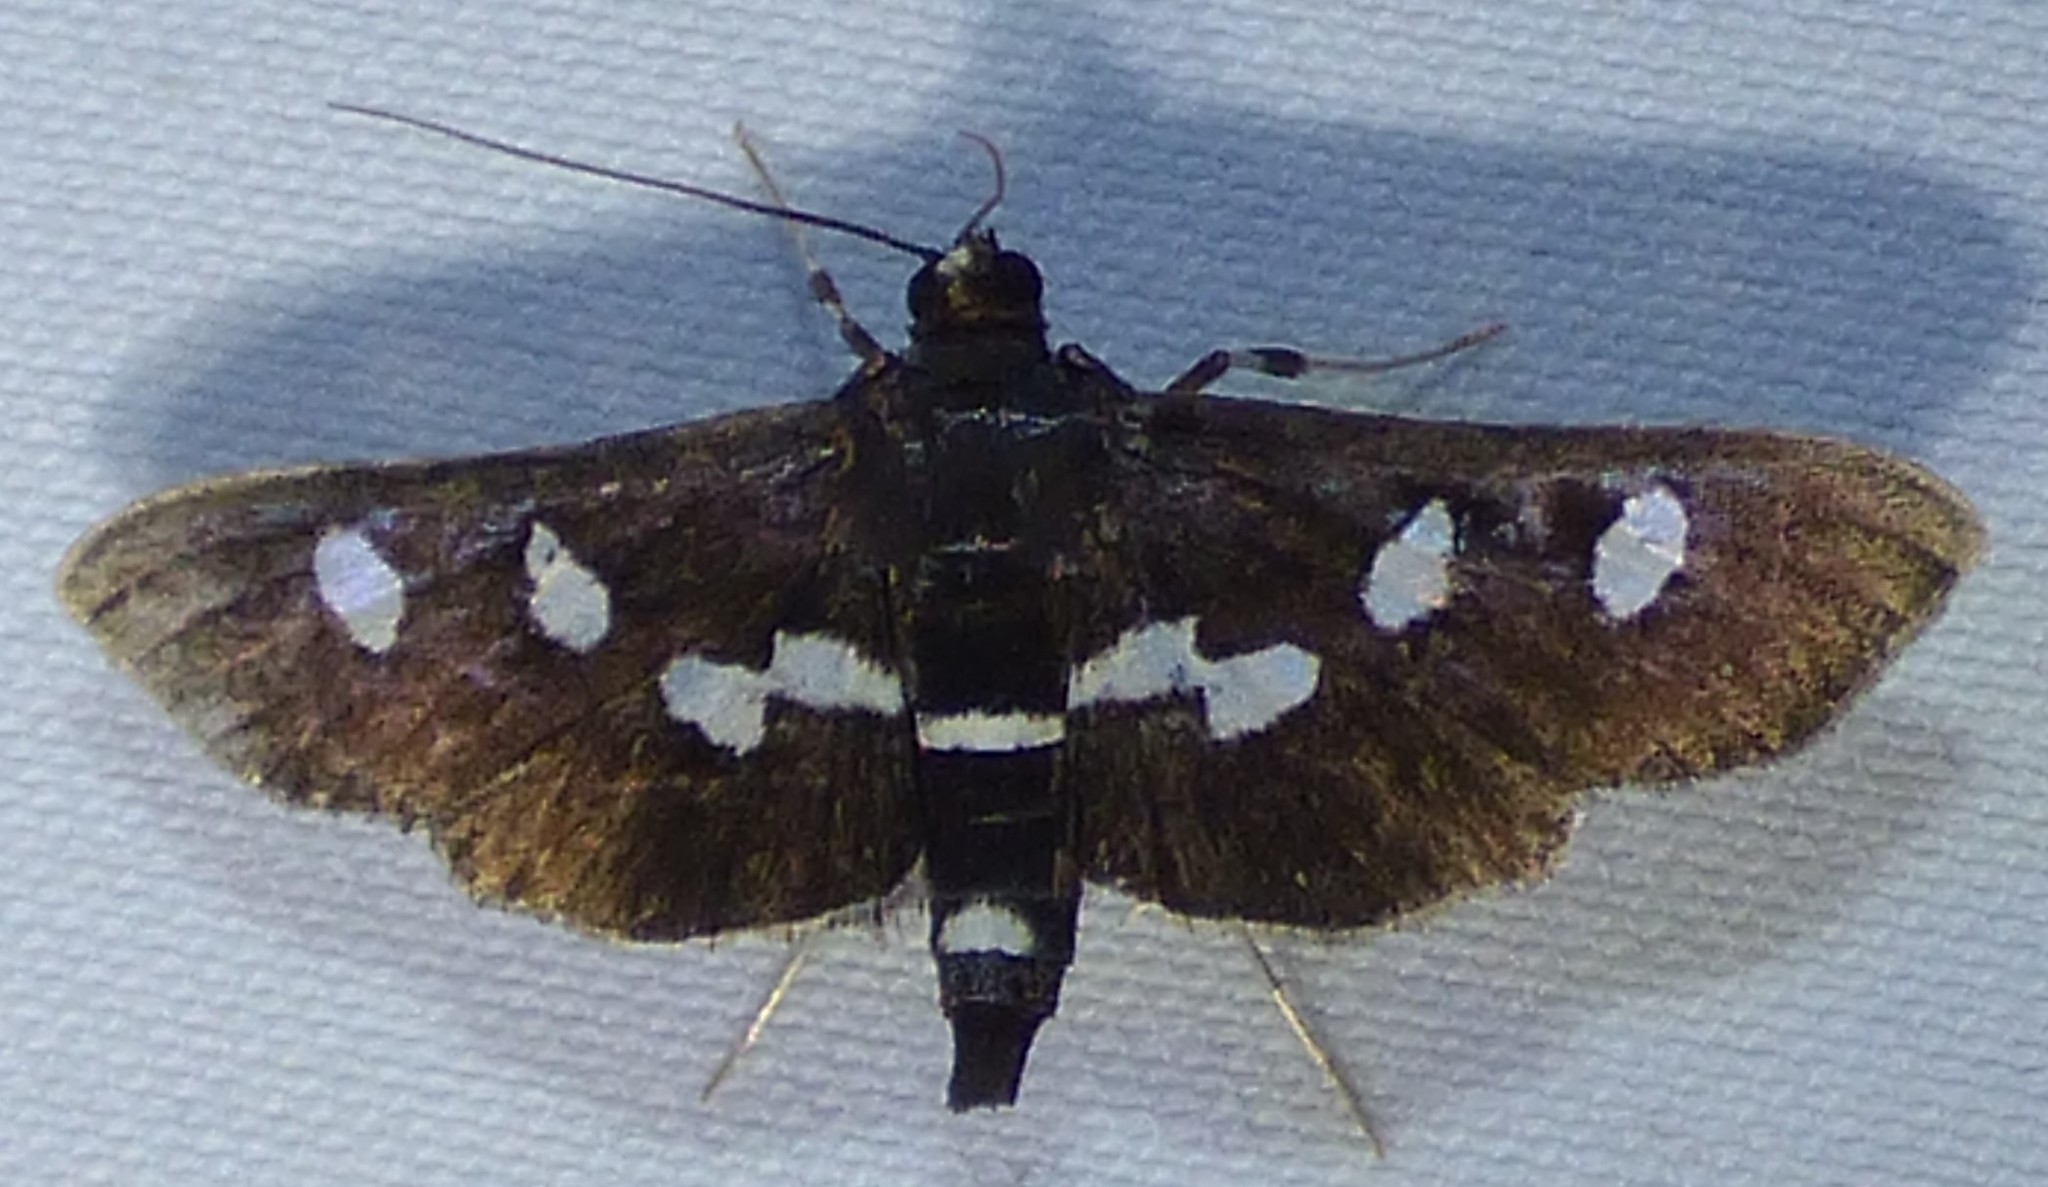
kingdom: Animalia
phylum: Arthropoda
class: Insecta
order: Lepidoptera
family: Crambidae
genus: Desmia
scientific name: Desmia funeralis
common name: Grape leaf folder moth
